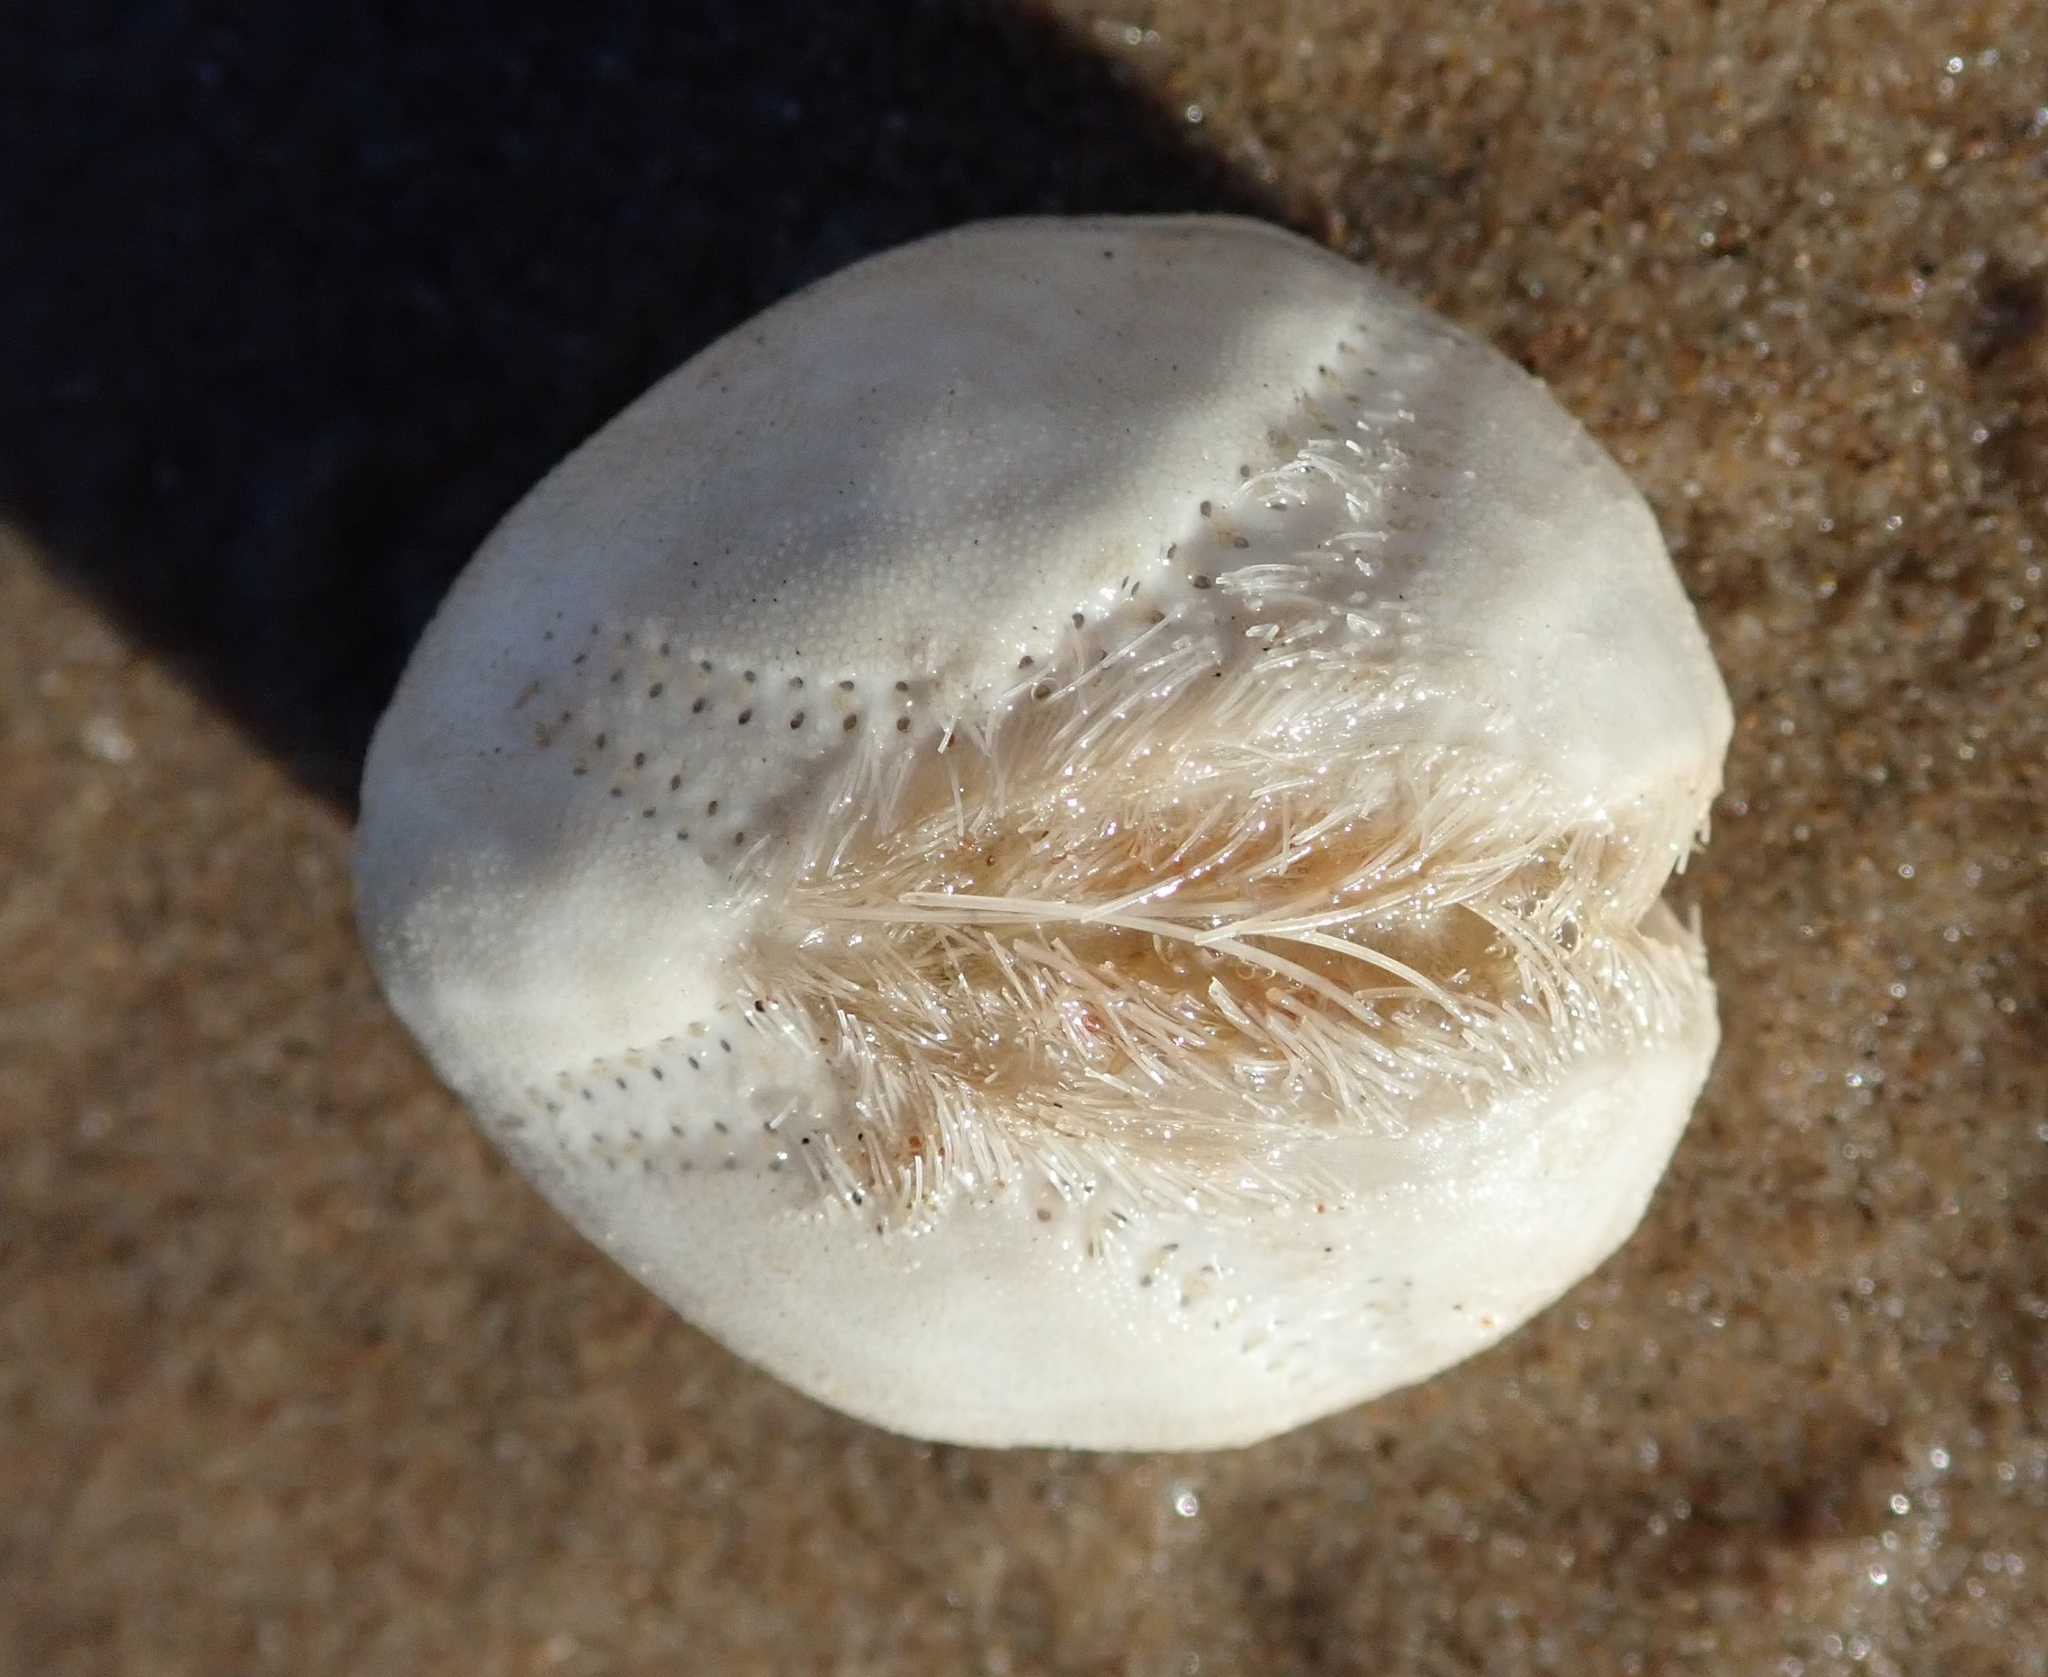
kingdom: Animalia
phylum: Echinodermata
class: Echinoidea
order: Spatangoida
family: Loveniidae
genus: Echinocardium
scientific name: Echinocardium cordatum
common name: Heart-urchin
